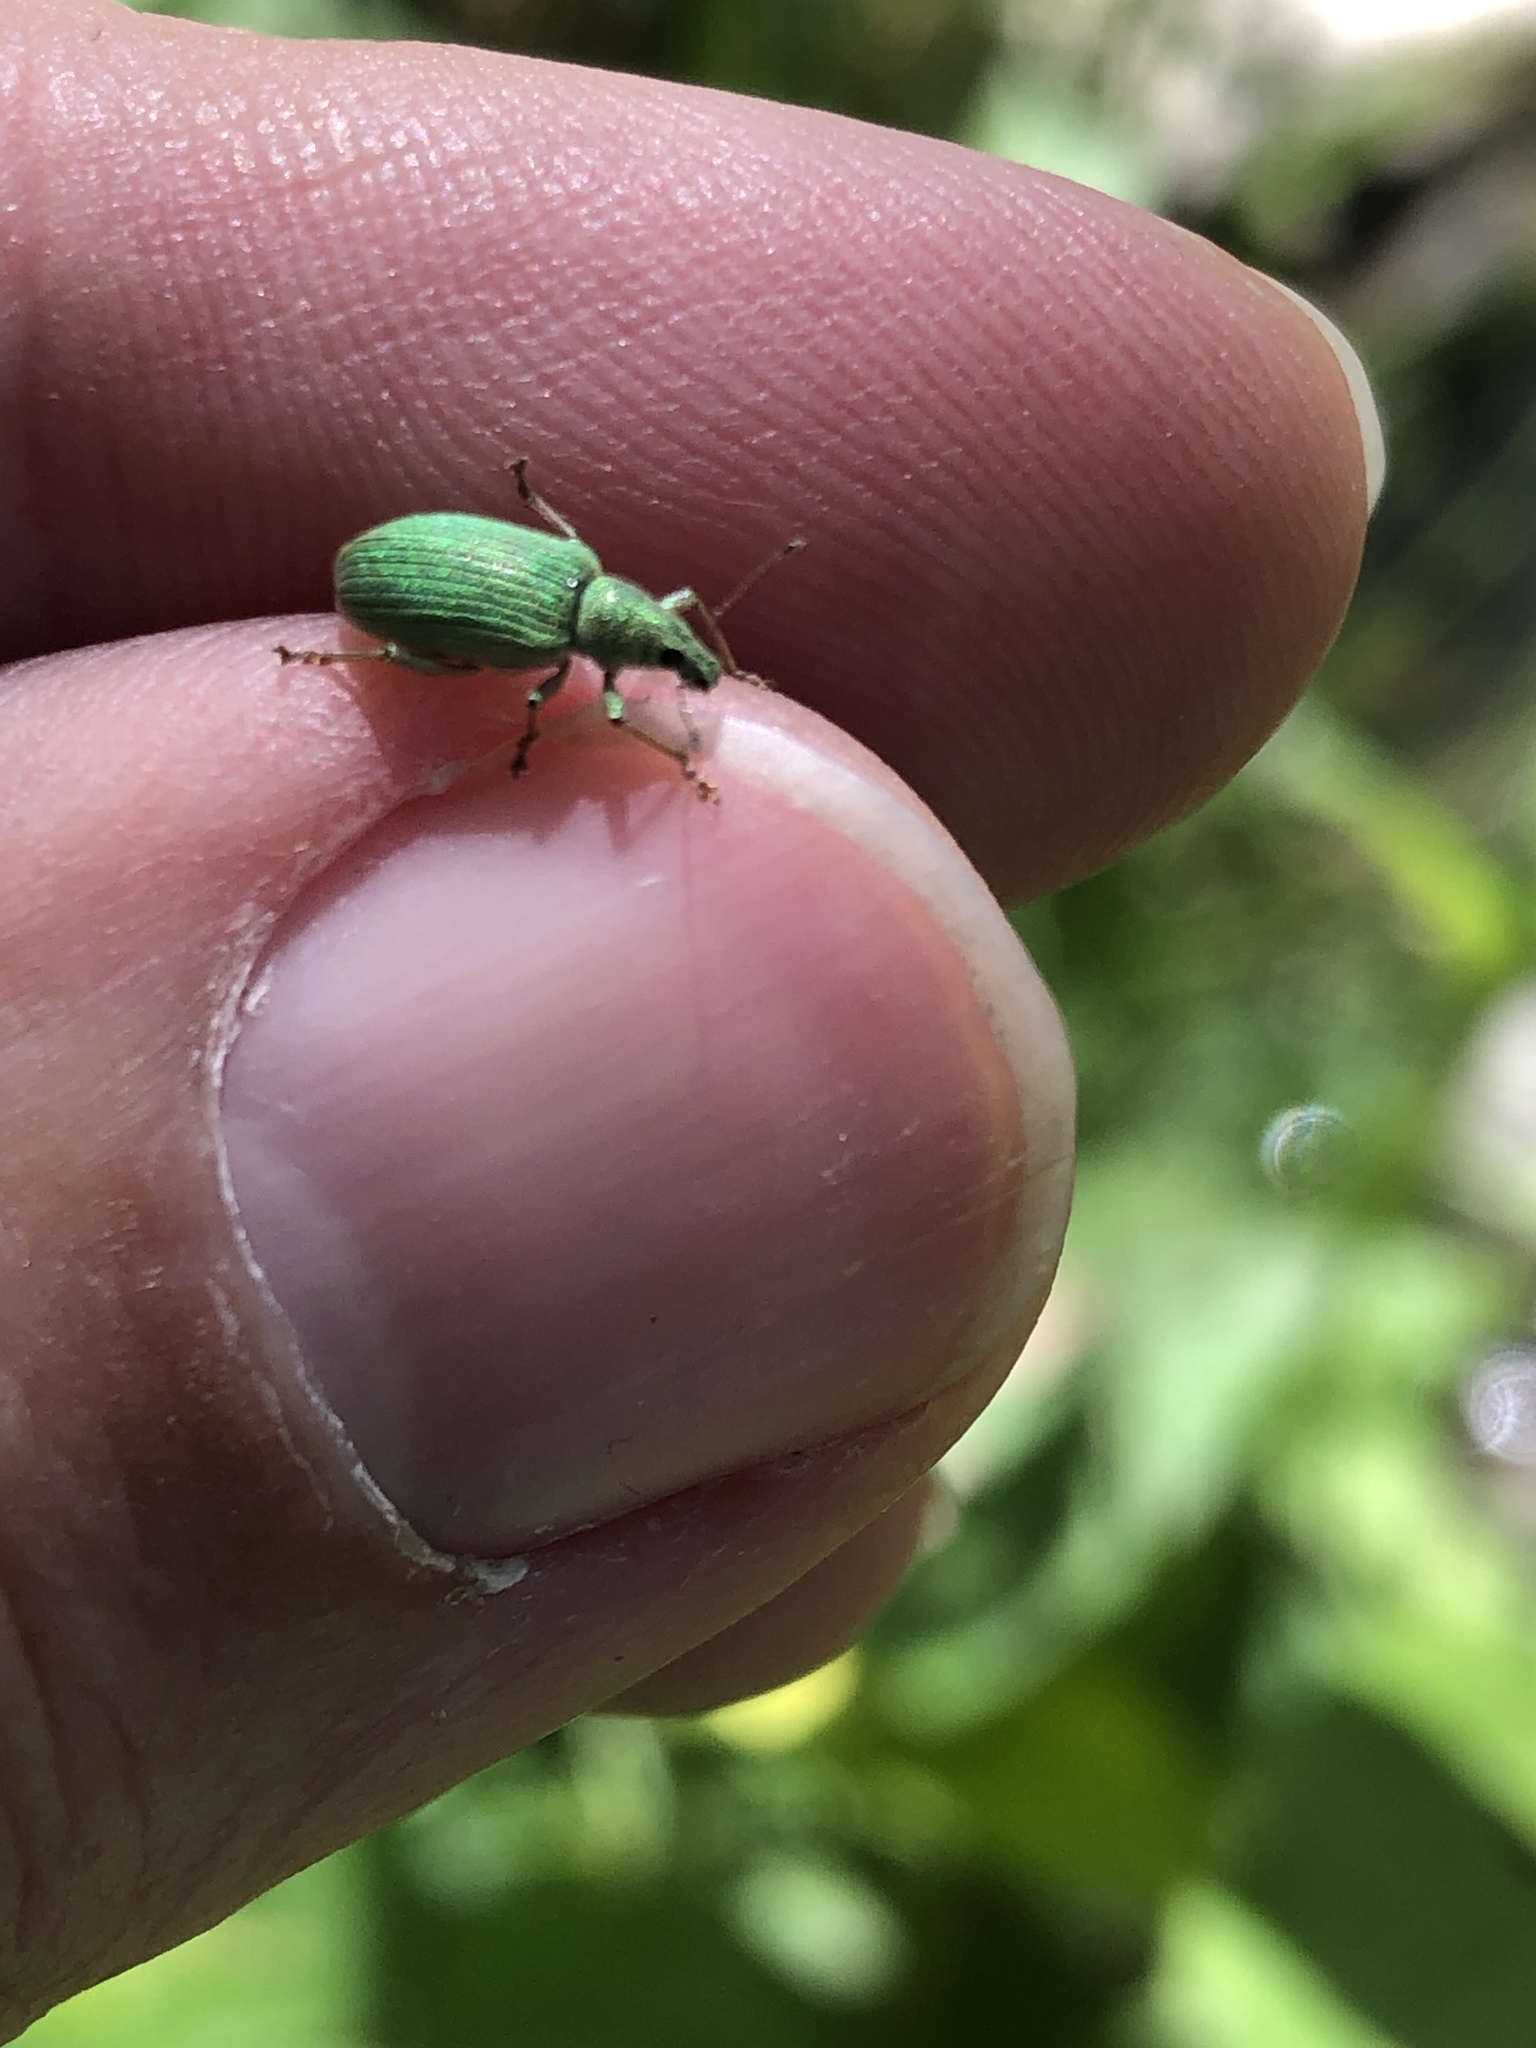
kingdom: Animalia
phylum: Arthropoda
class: Insecta
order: Coleoptera
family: Curculionidae
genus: Polydrusus
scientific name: Polydrusus formosus
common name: Weevil
